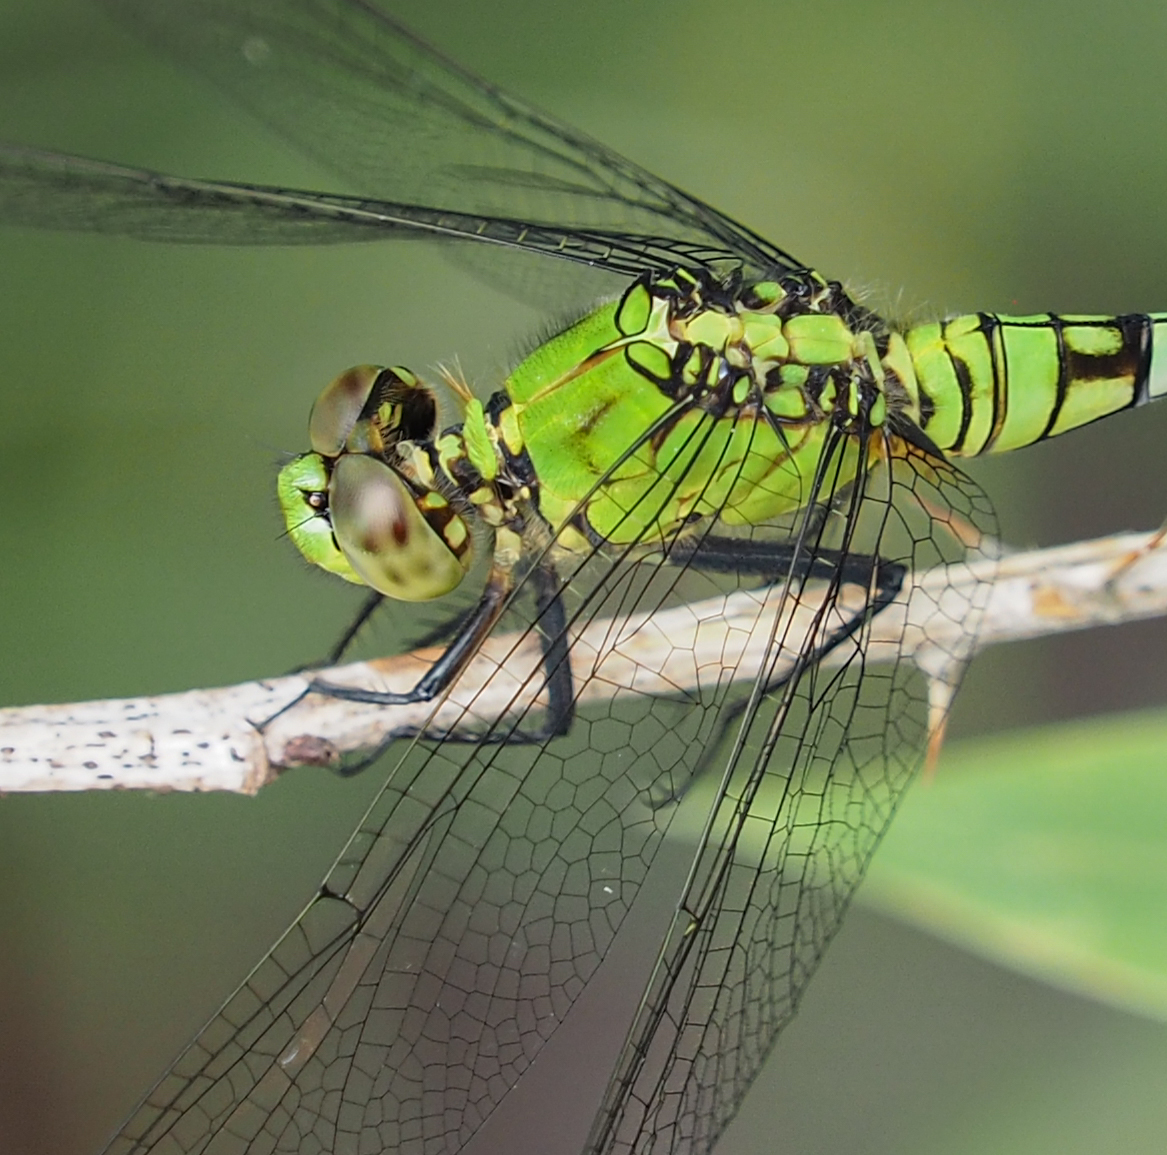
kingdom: Animalia
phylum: Arthropoda
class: Insecta
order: Odonata
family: Libellulidae
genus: Erythemis
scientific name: Erythemis simplicicollis
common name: Eastern pondhawk
